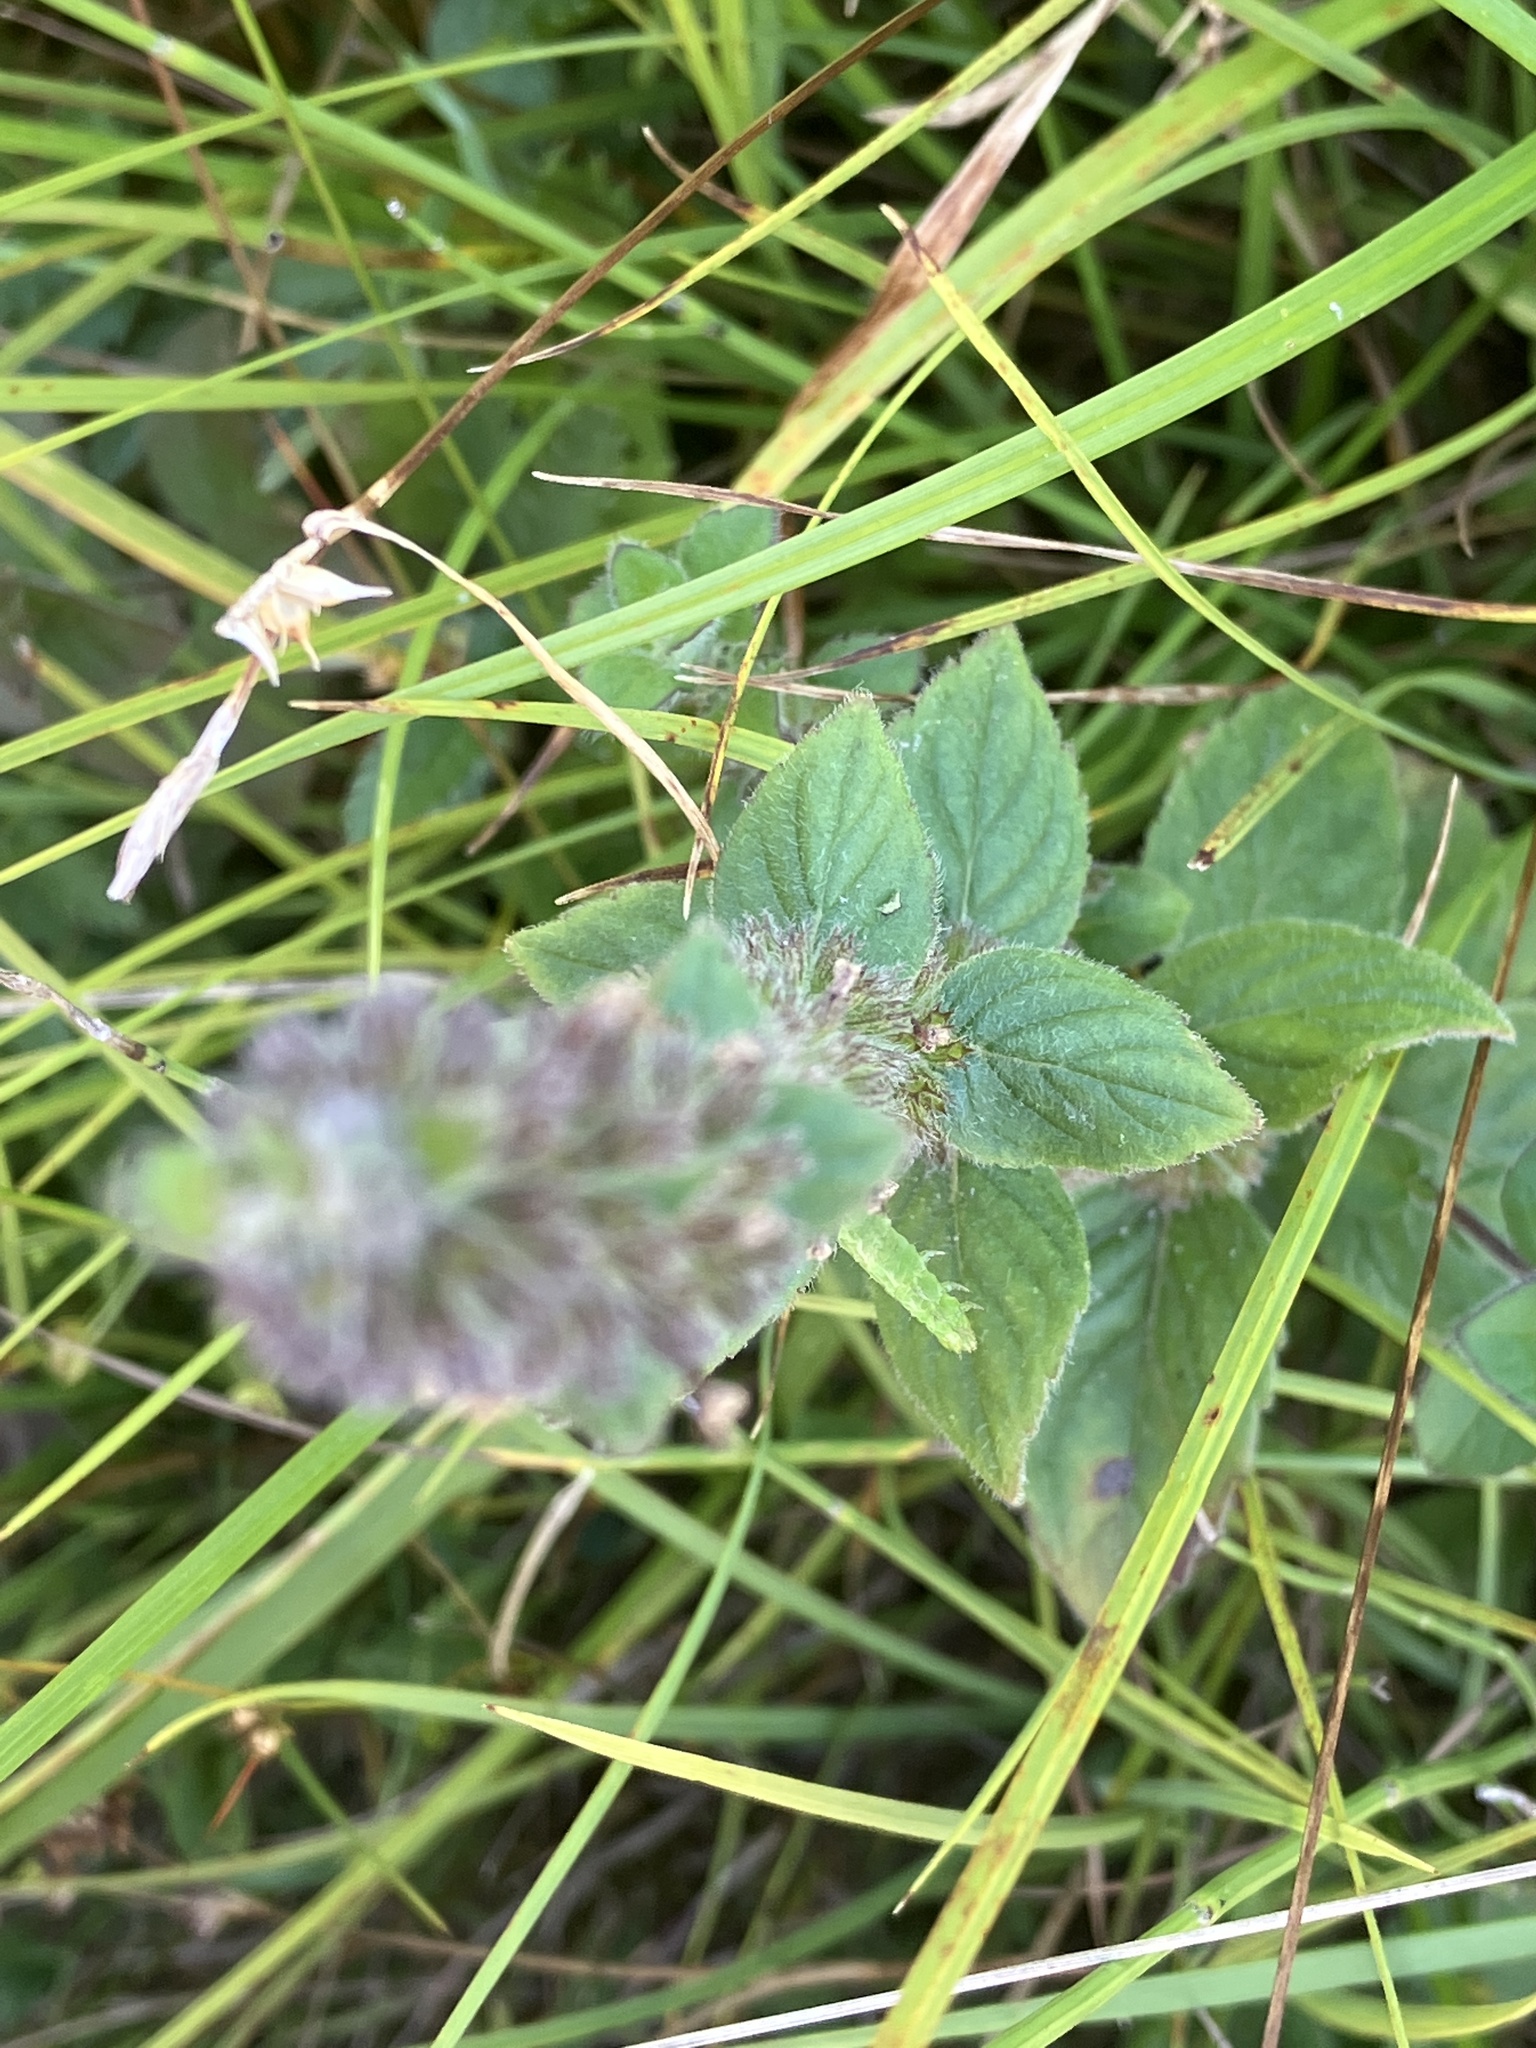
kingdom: Plantae
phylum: Tracheophyta
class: Magnoliopsida
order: Lamiales
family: Lamiaceae
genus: Mentha
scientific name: Mentha verticillata
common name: Mint
